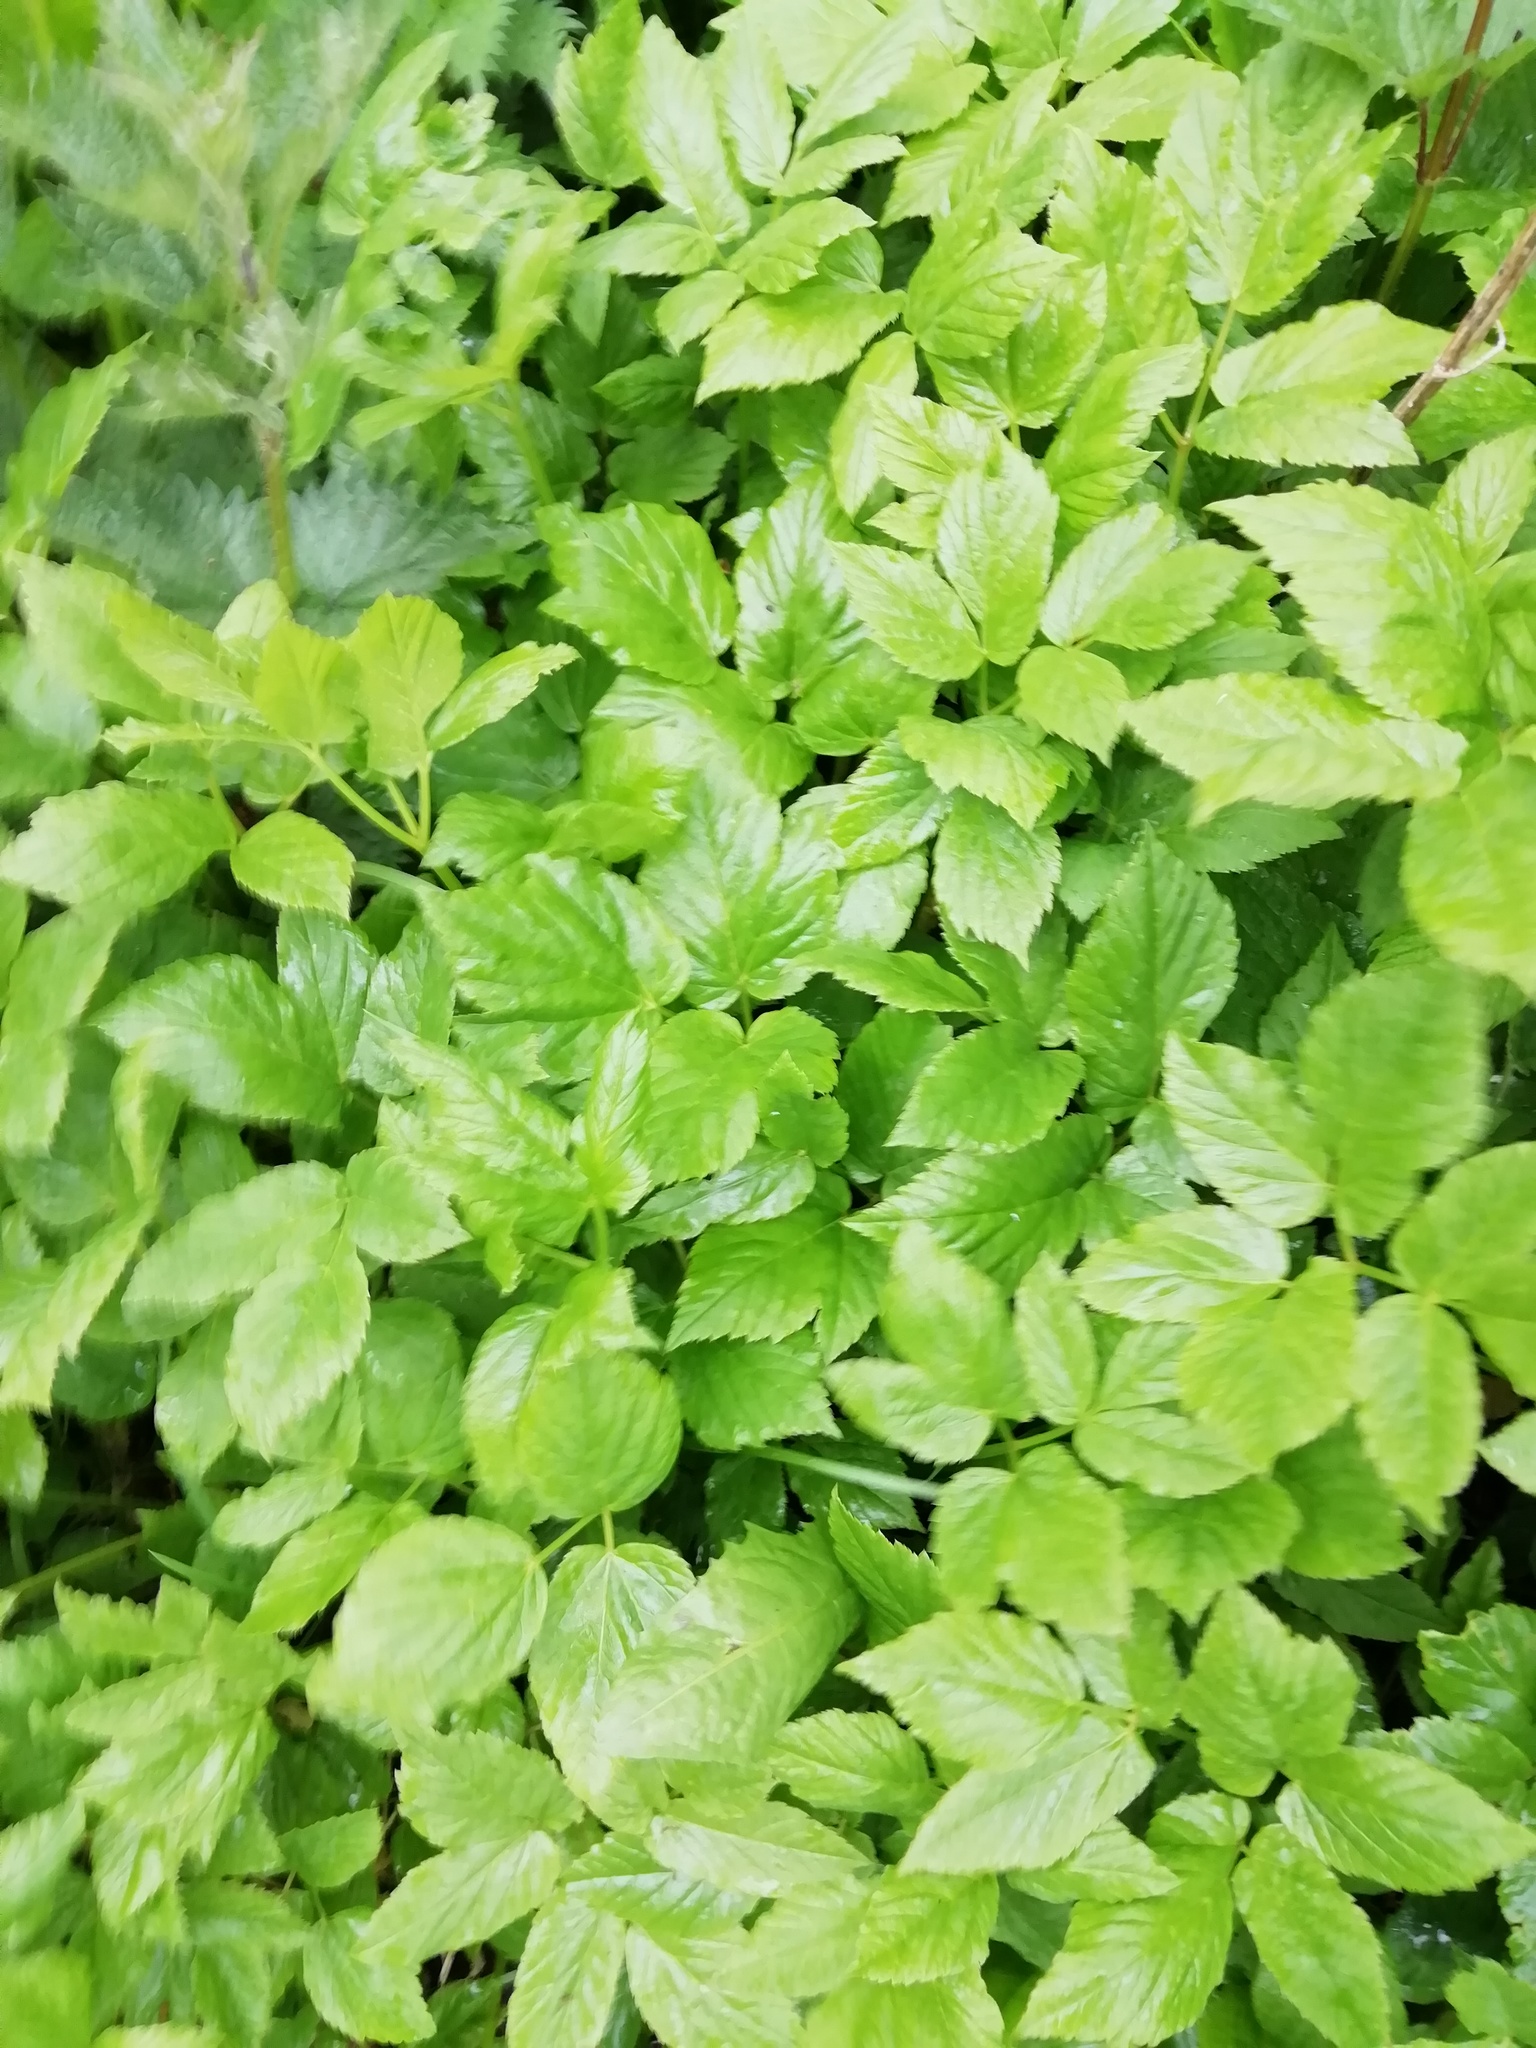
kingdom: Plantae
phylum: Tracheophyta
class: Magnoliopsida
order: Apiales
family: Apiaceae
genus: Aegopodium
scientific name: Aegopodium podagraria
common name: Ground-elder
